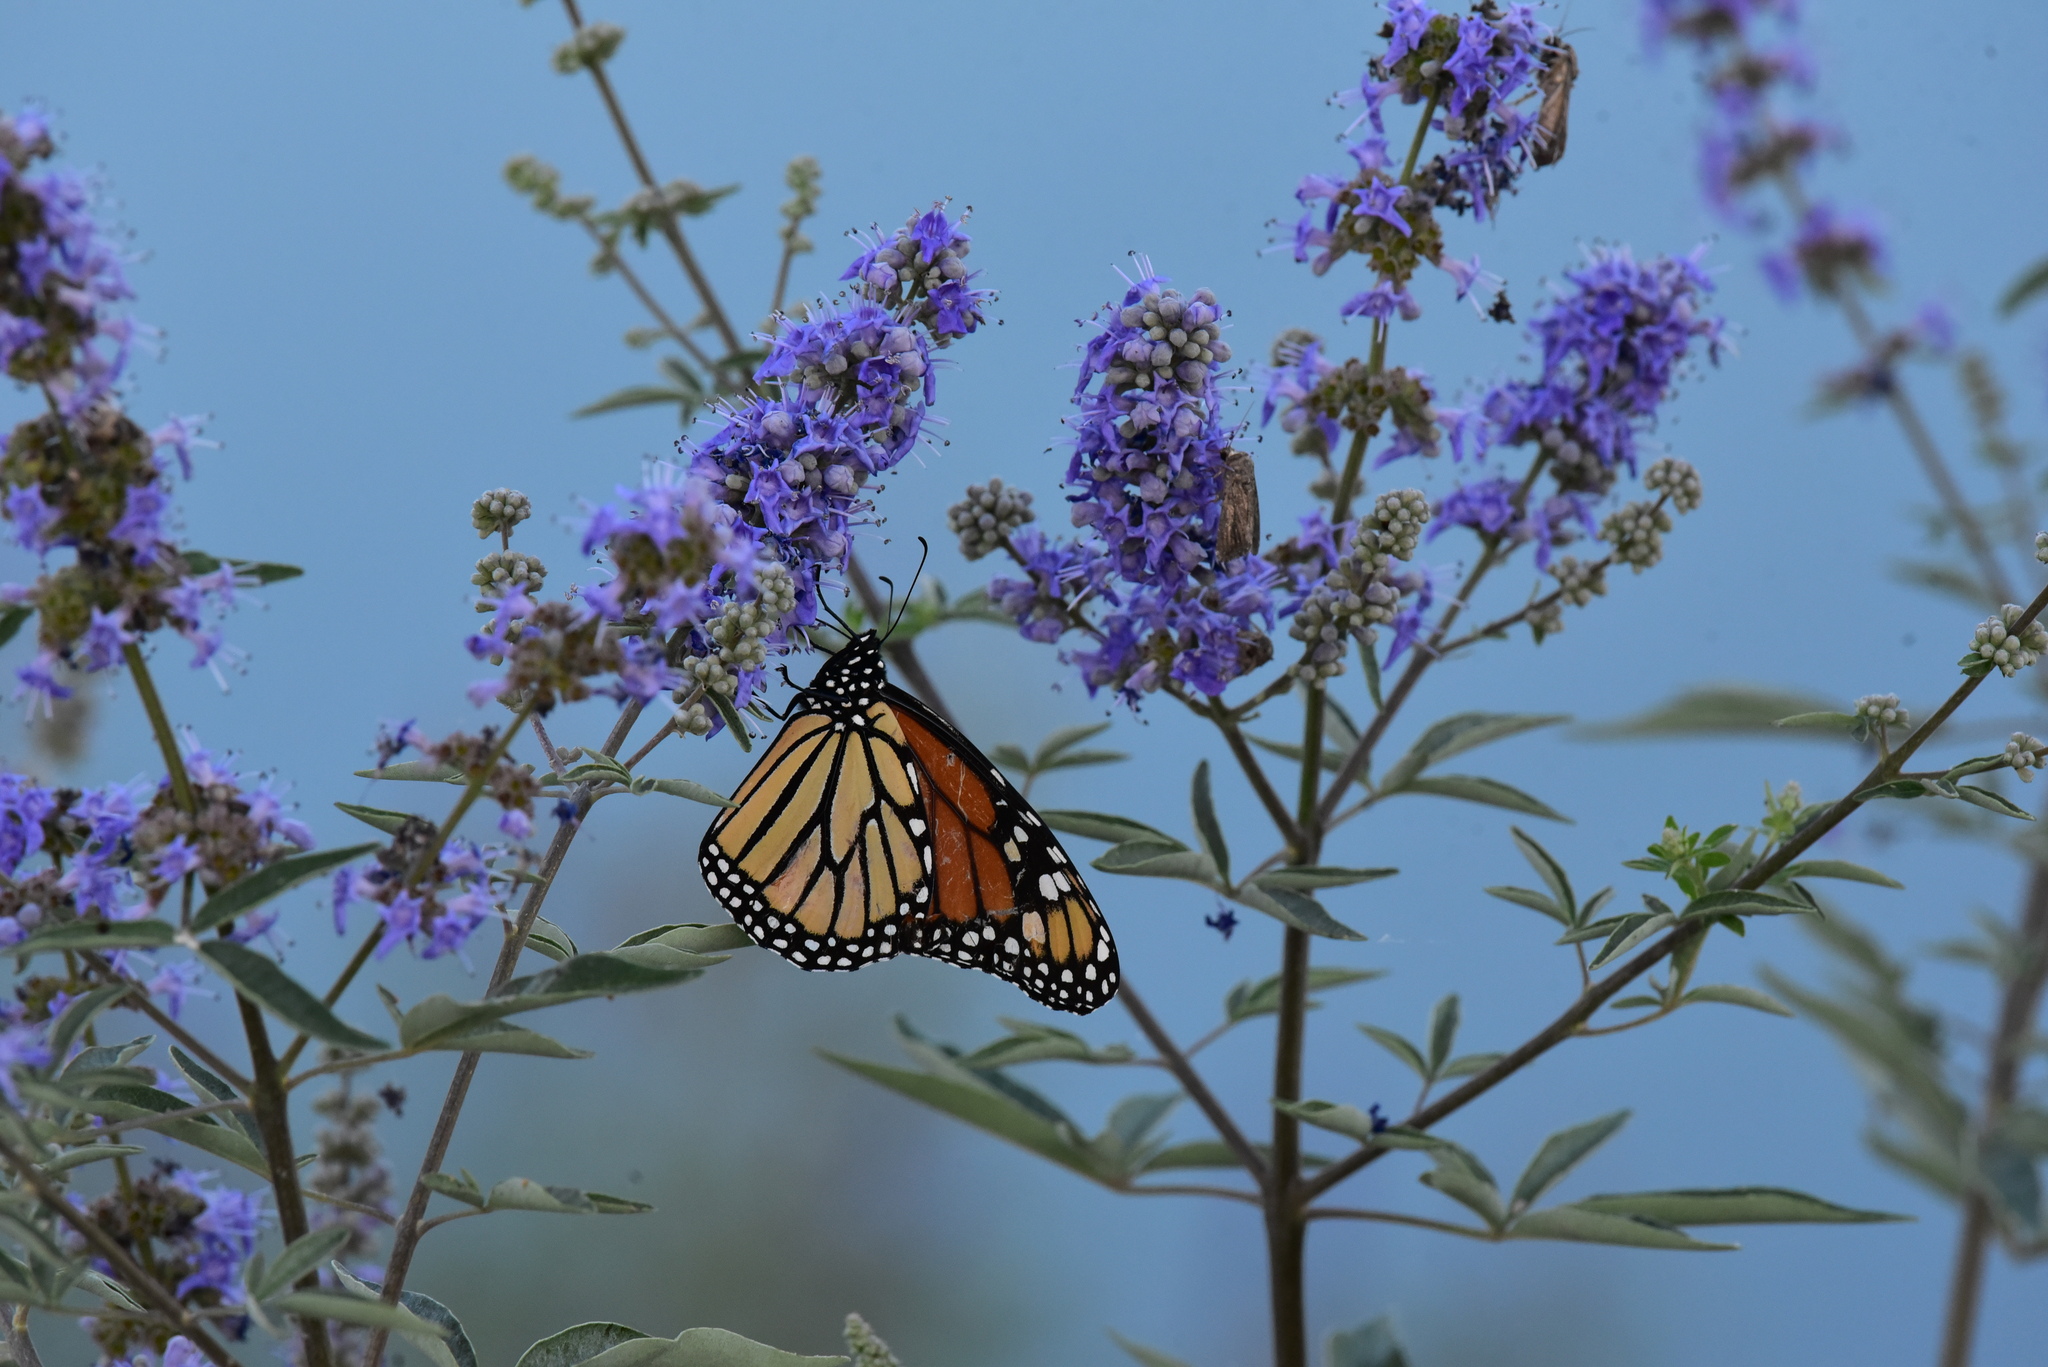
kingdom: Animalia
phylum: Arthropoda
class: Insecta
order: Lepidoptera
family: Nymphalidae
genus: Danaus
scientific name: Danaus plexippus
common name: Monarch
